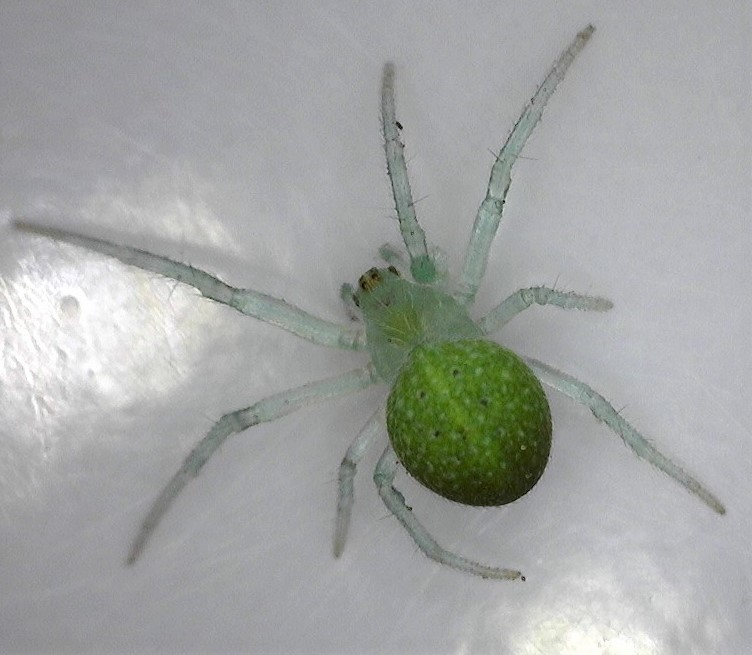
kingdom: Animalia
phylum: Arthropoda
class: Arachnida
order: Araneae
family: Araneidae
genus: Araneus
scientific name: Araneus circulissparsus
